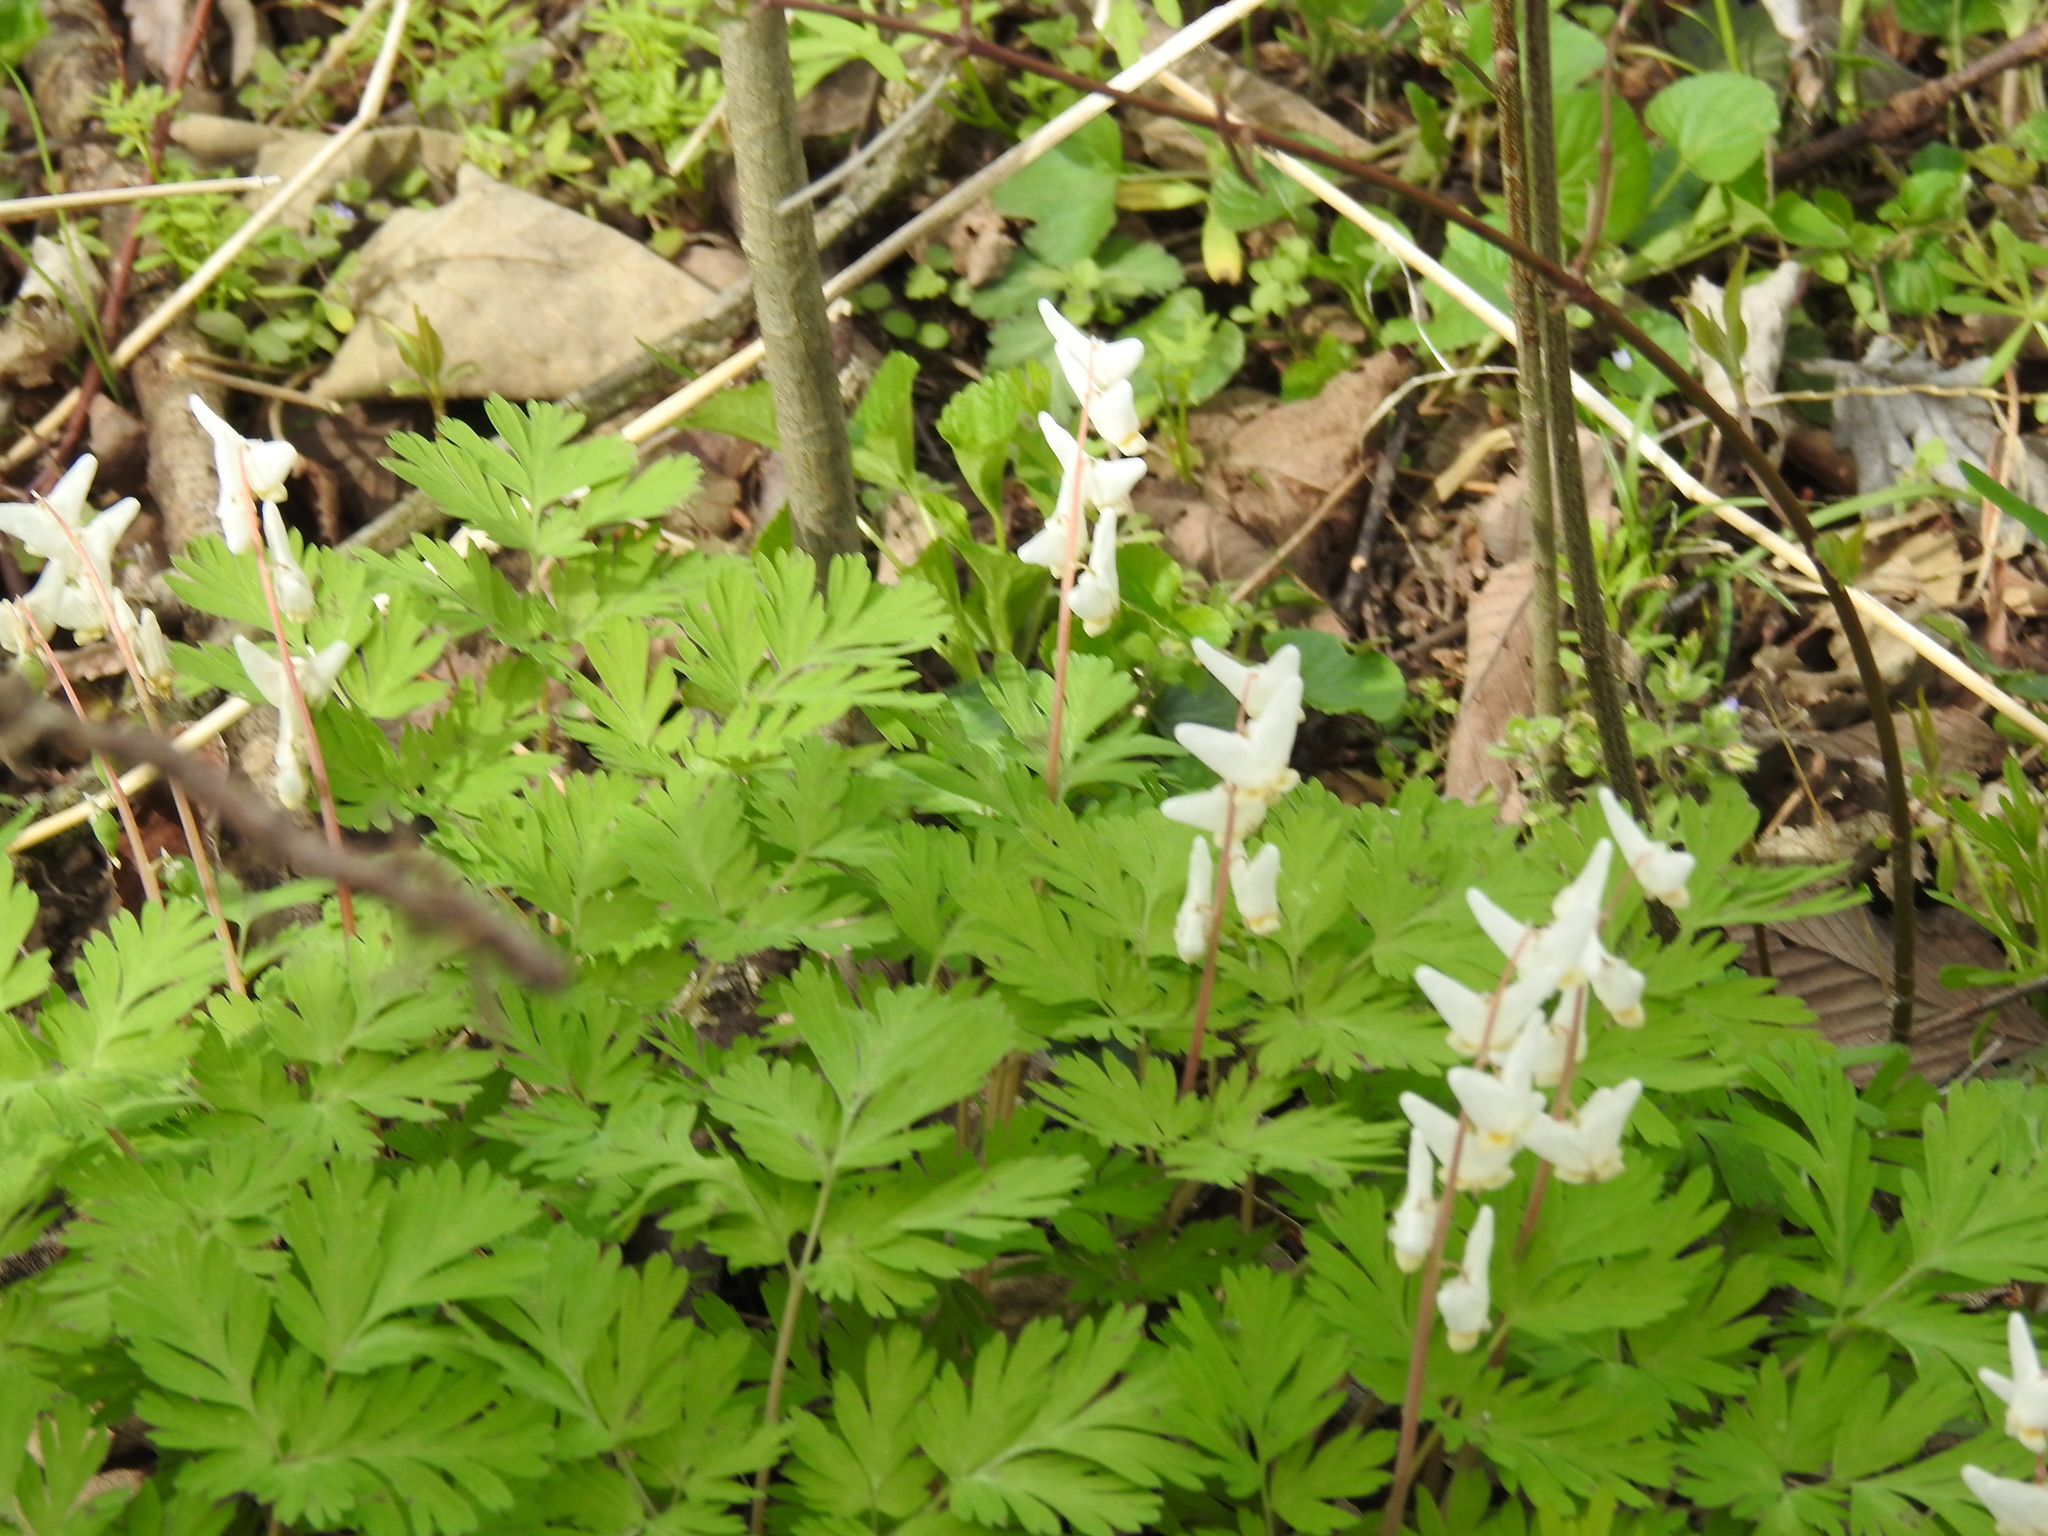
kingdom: Plantae
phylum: Tracheophyta
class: Magnoliopsida
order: Ranunculales
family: Papaveraceae
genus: Dicentra
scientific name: Dicentra cucullaria
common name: Dutchman's breeches
